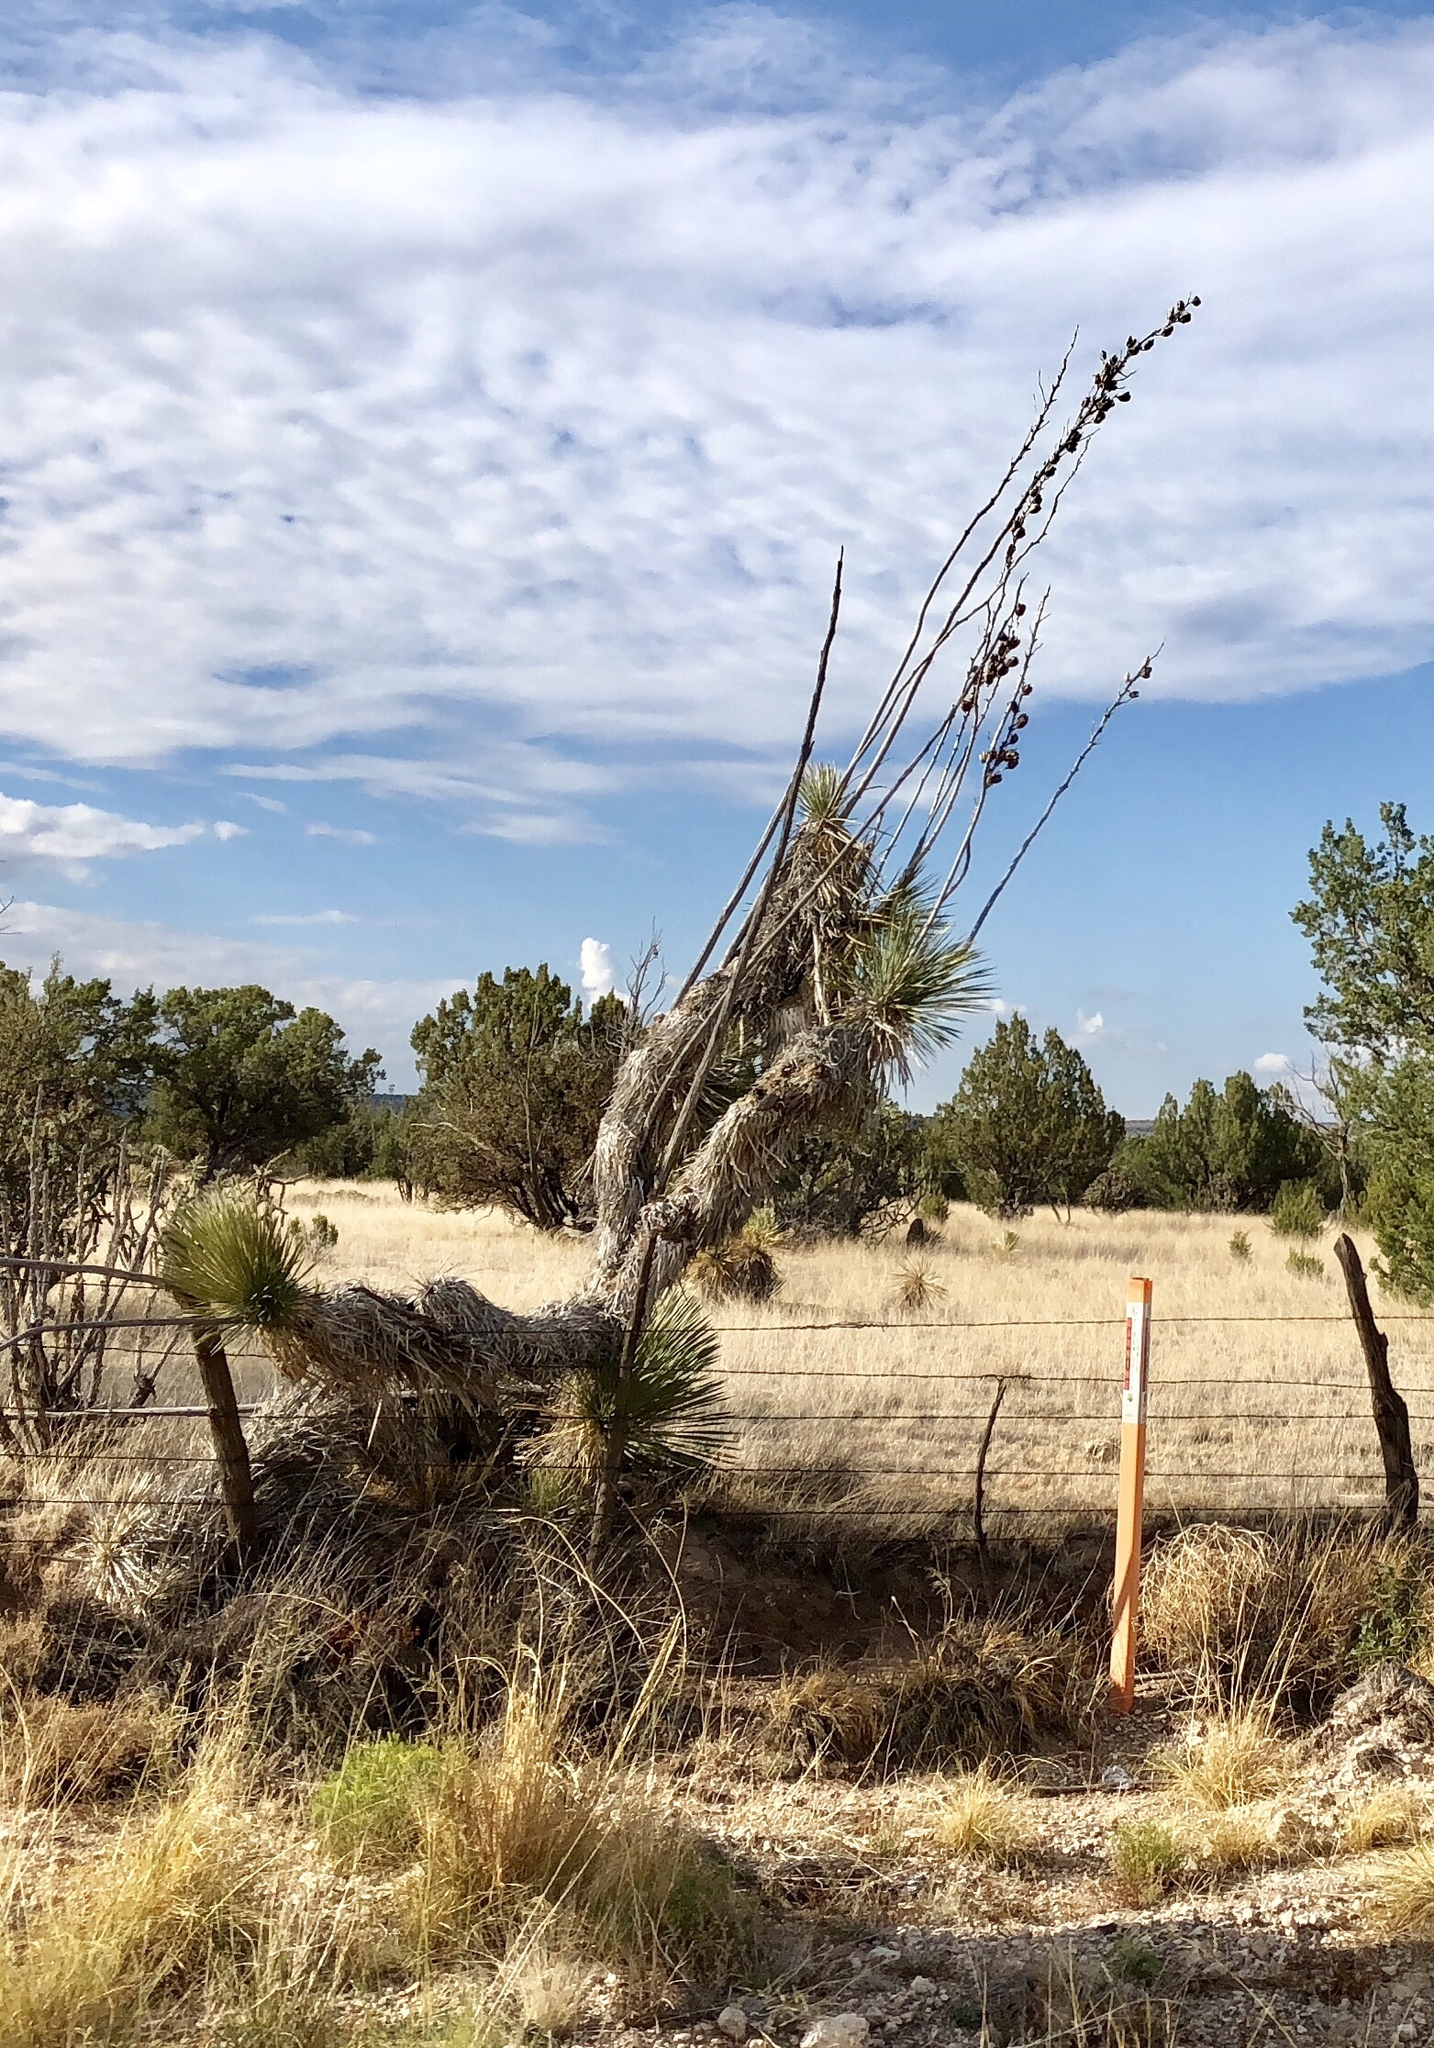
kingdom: Plantae
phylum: Tracheophyta
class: Liliopsida
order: Asparagales
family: Asparagaceae
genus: Yucca
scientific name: Yucca elata
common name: Palmella
